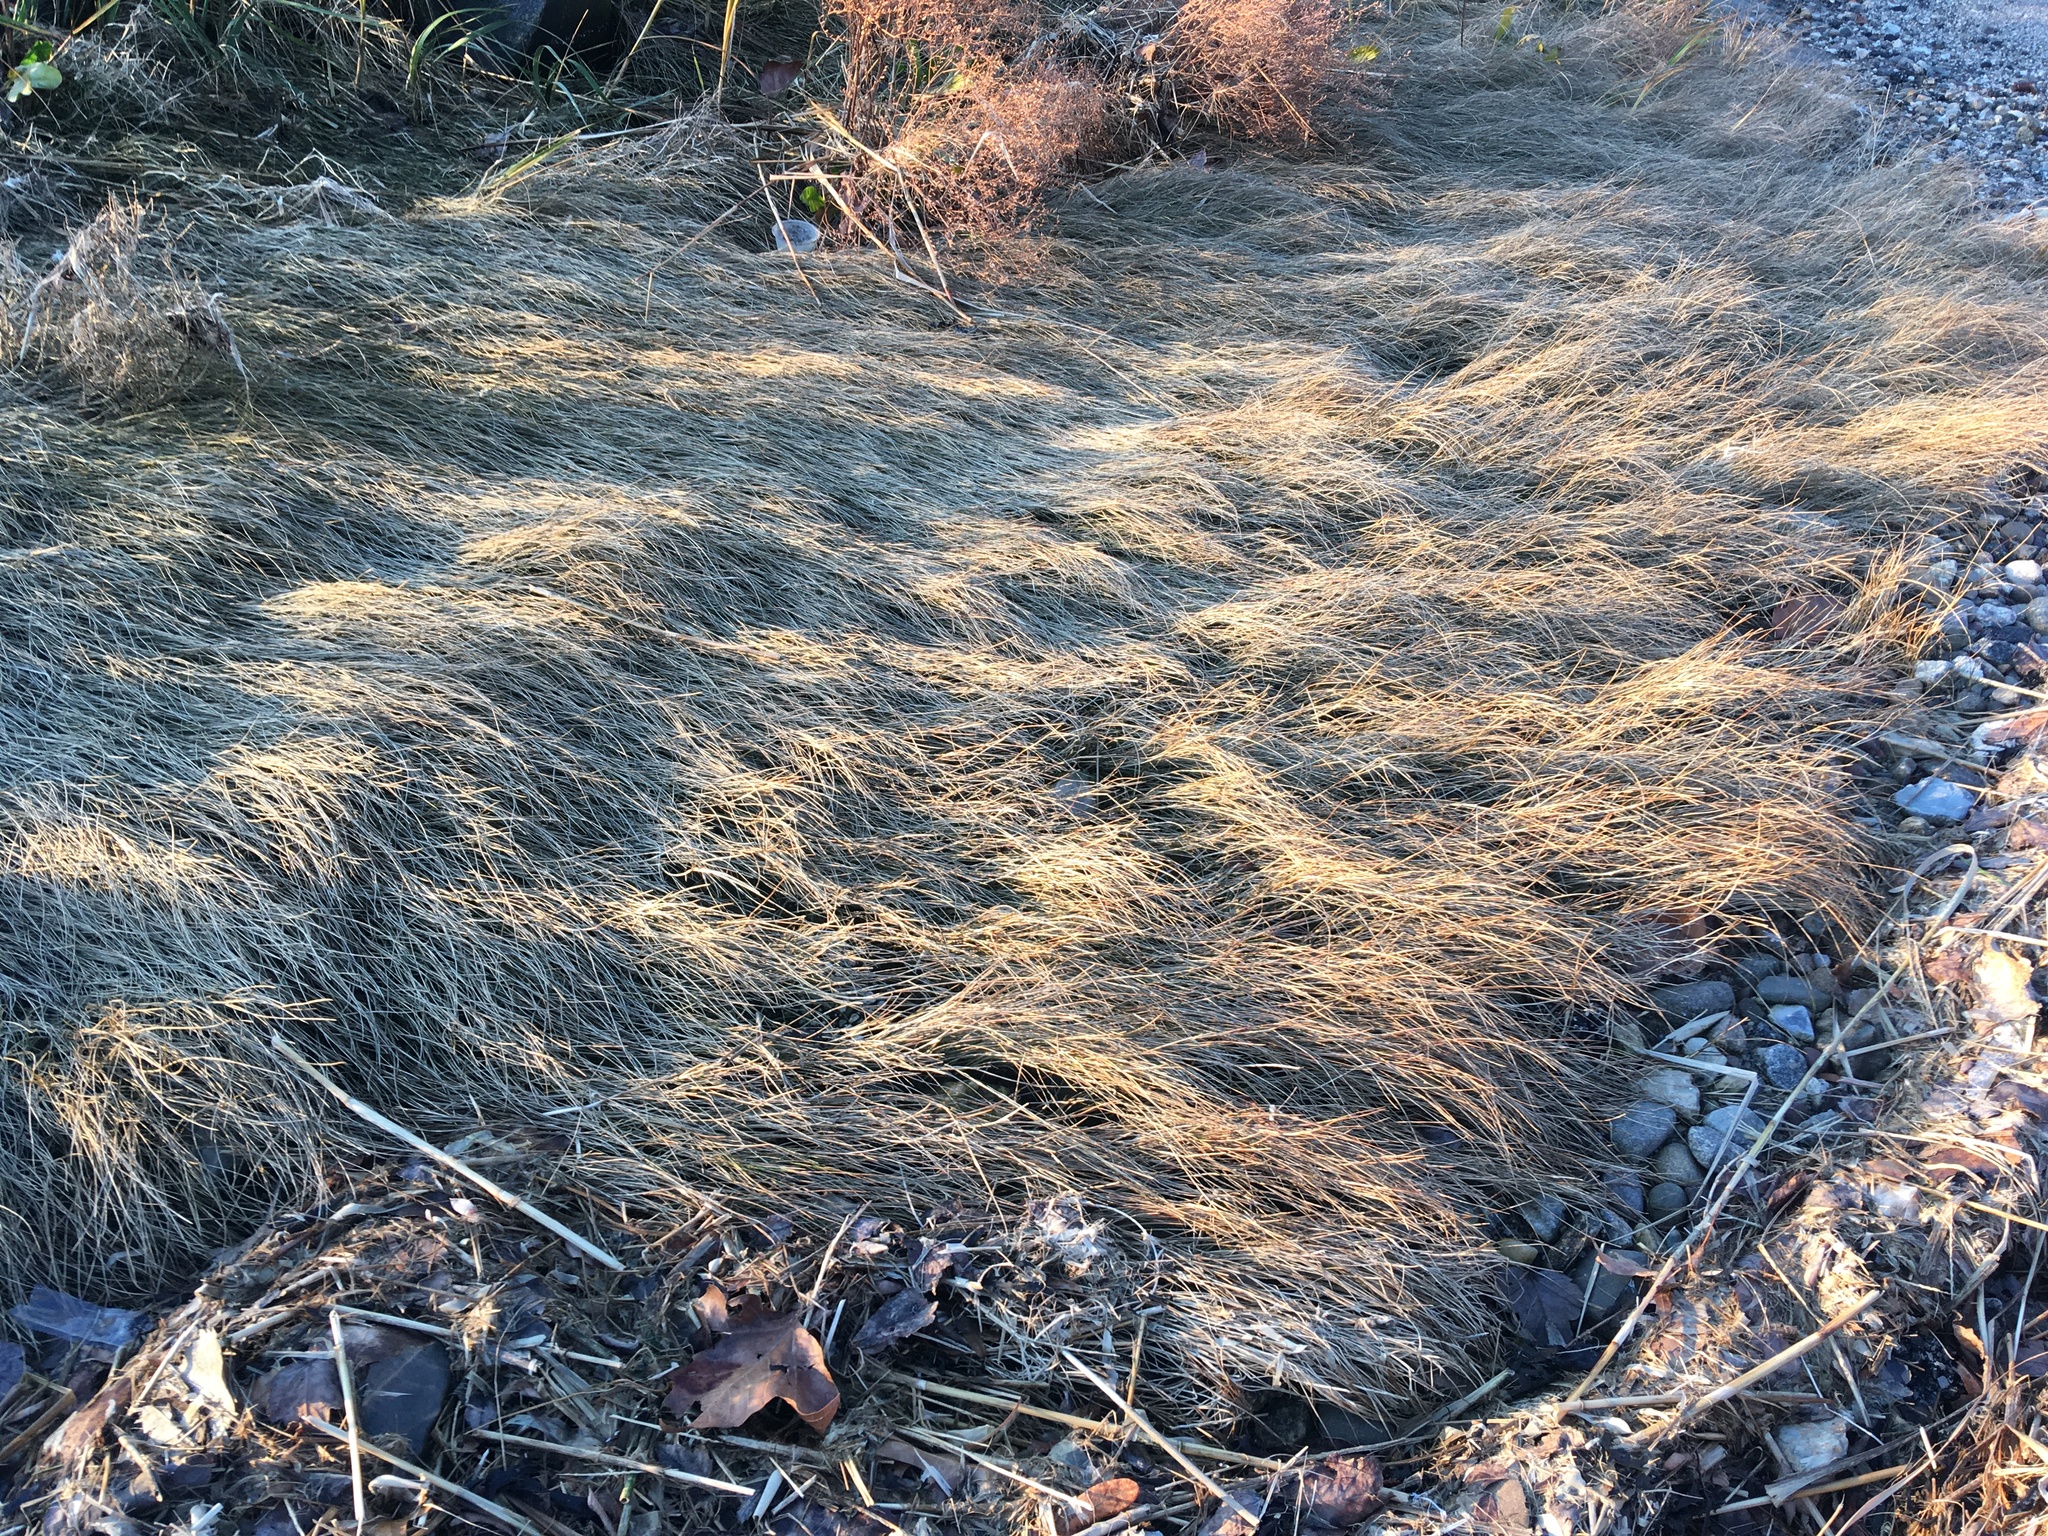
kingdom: Plantae
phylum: Tracheophyta
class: Liliopsida
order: Poales
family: Poaceae
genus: Sporobolus
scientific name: Sporobolus pumilus
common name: Highwater grass
